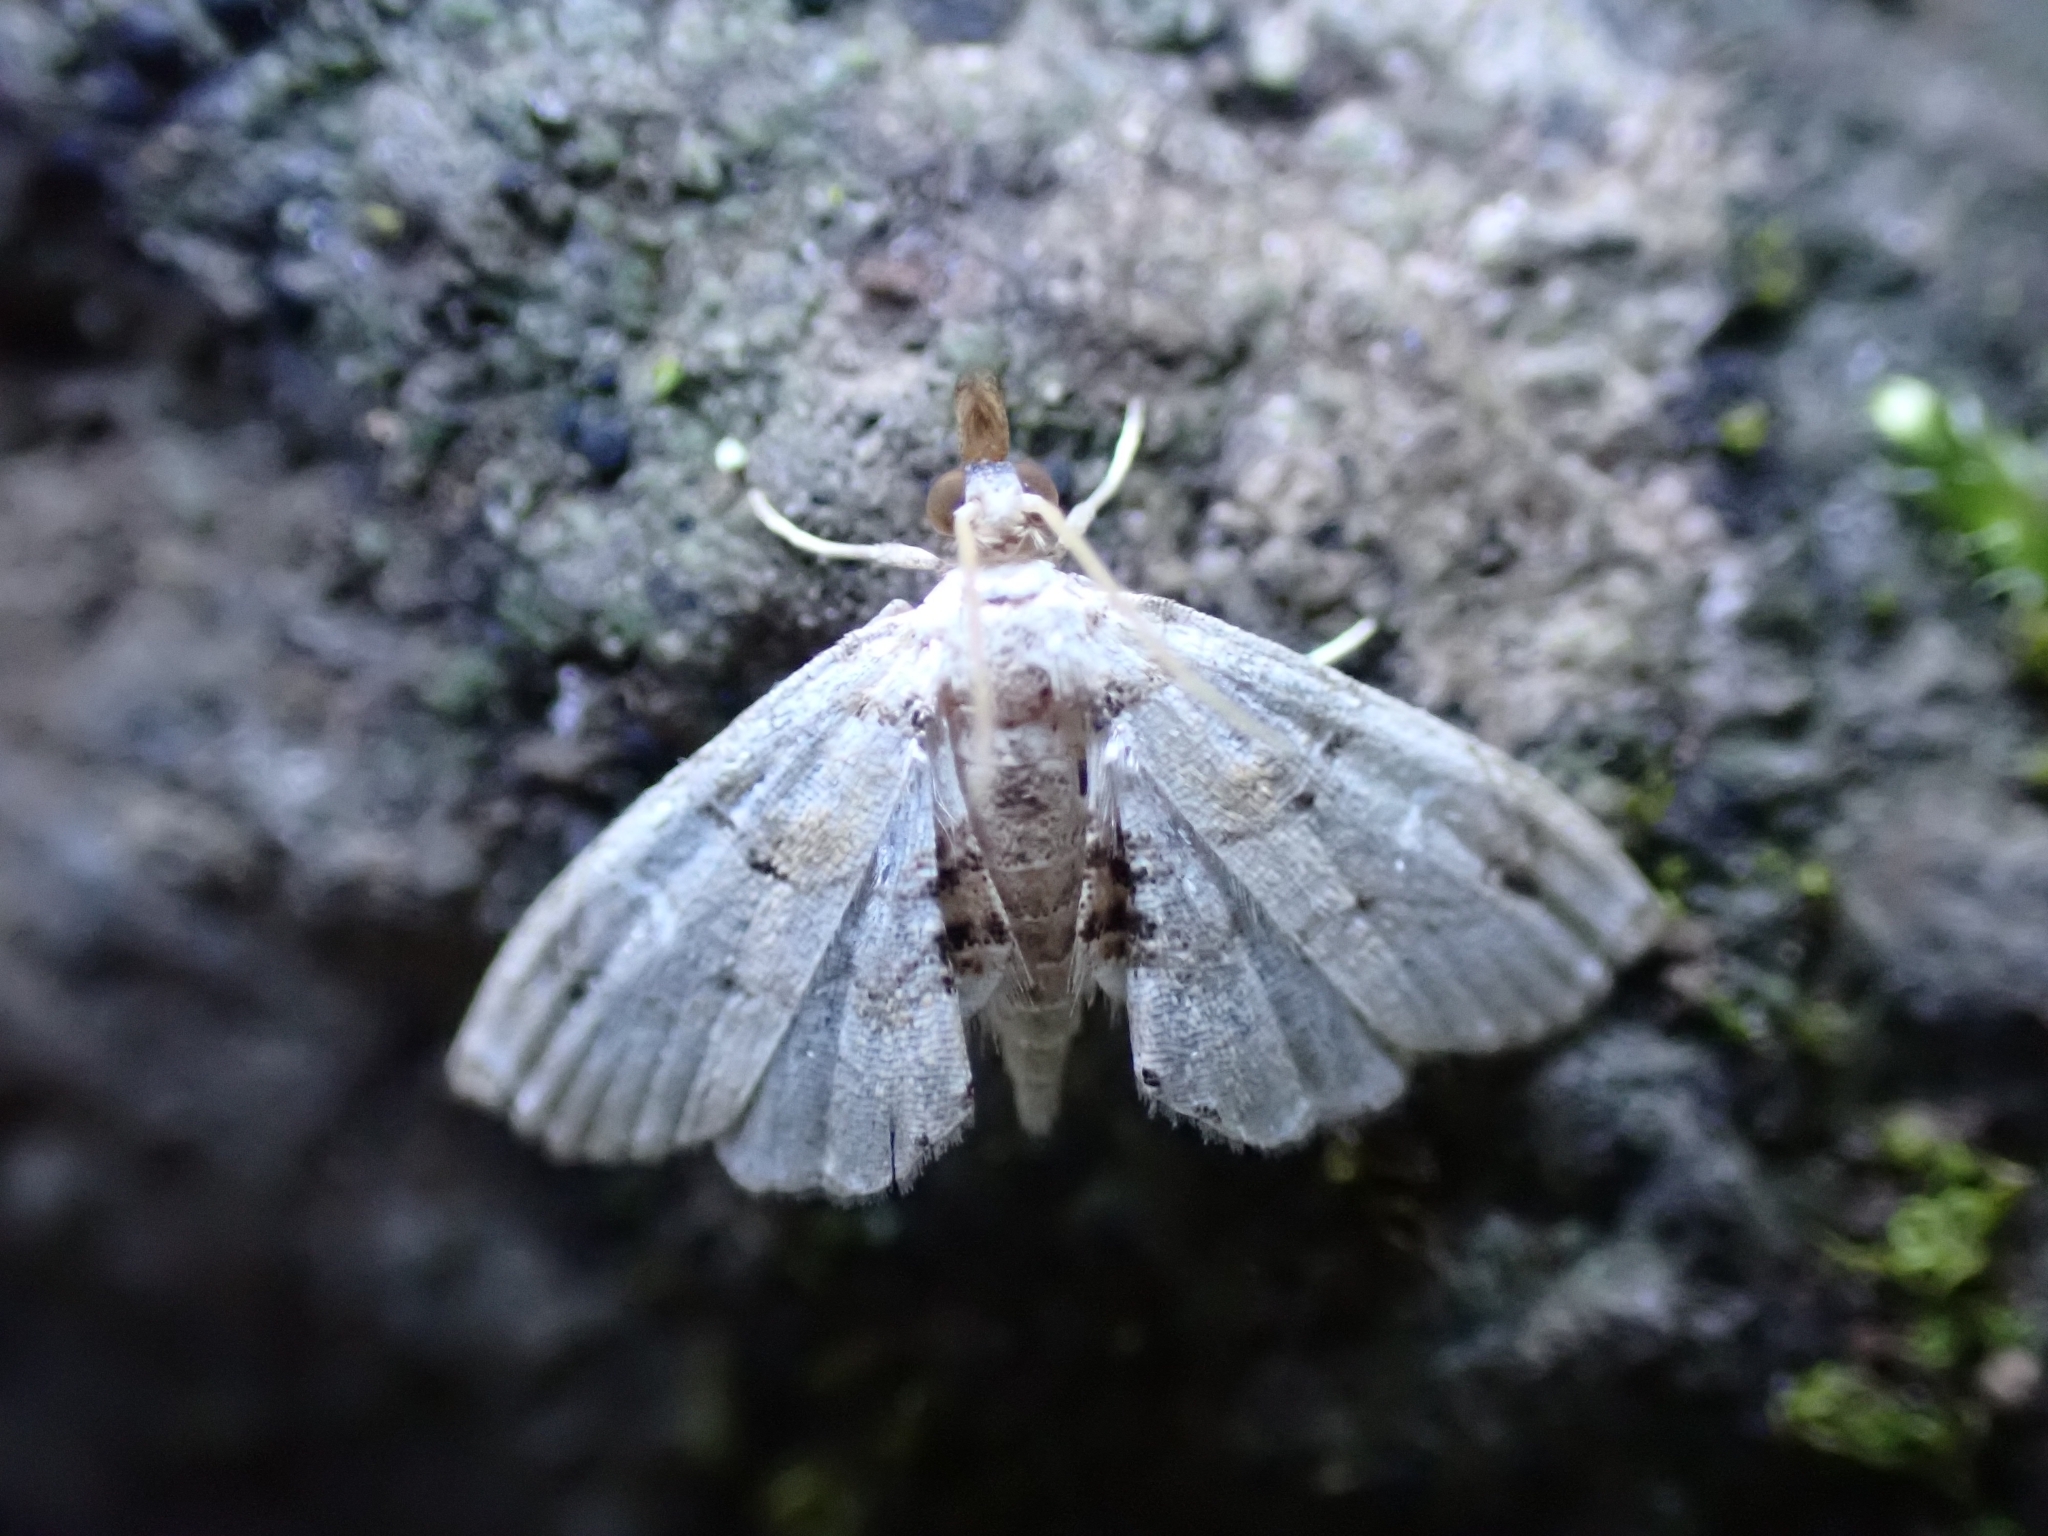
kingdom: Animalia
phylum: Arthropoda
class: Insecta
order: Lepidoptera
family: Crambidae
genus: Trichophysetis
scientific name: Trichophysetis whitei
